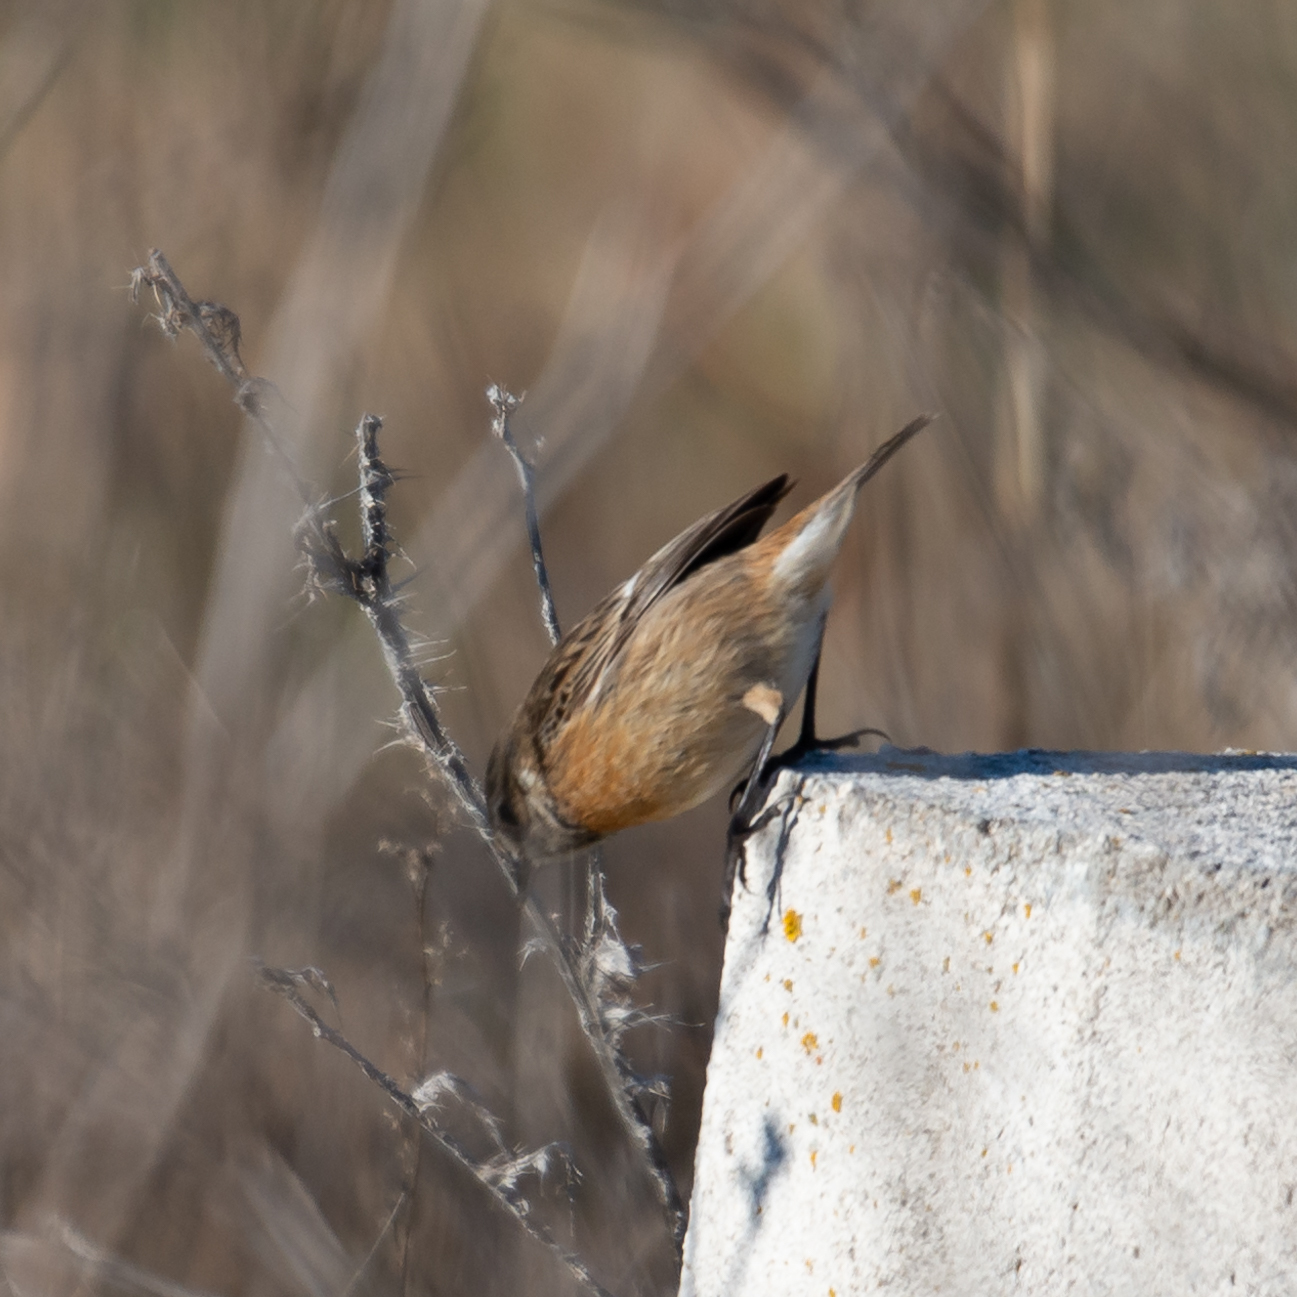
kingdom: Animalia
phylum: Chordata
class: Aves
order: Passeriformes
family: Muscicapidae
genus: Saxicola
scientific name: Saxicola rubicola
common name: European stonechat
